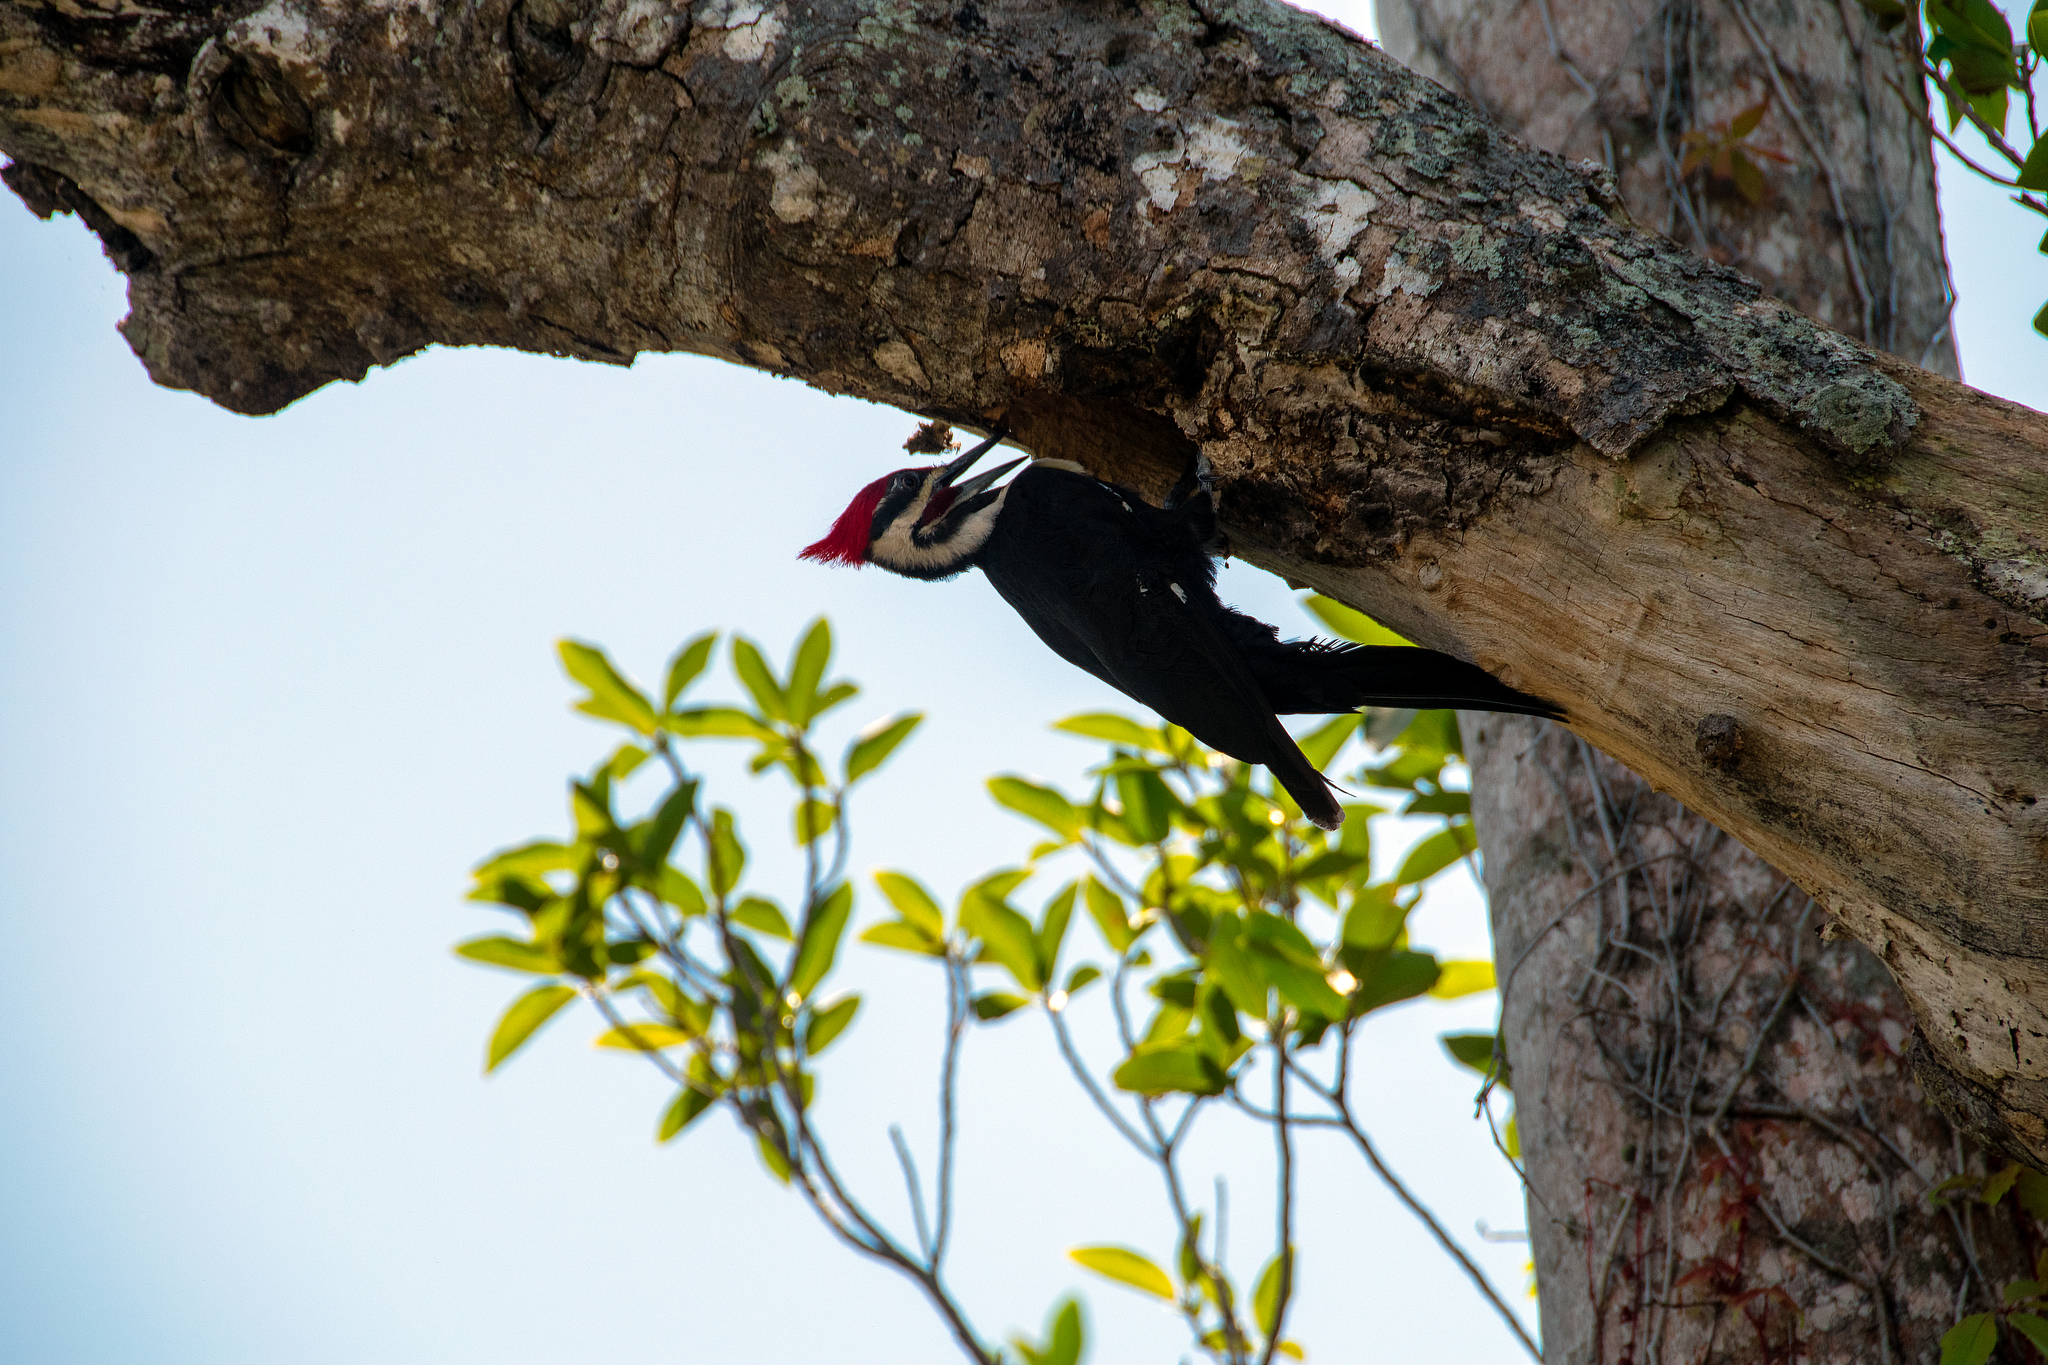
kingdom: Animalia
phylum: Chordata
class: Aves
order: Piciformes
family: Picidae
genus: Dryocopus
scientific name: Dryocopus pileatus
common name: Pileated woodpecker
